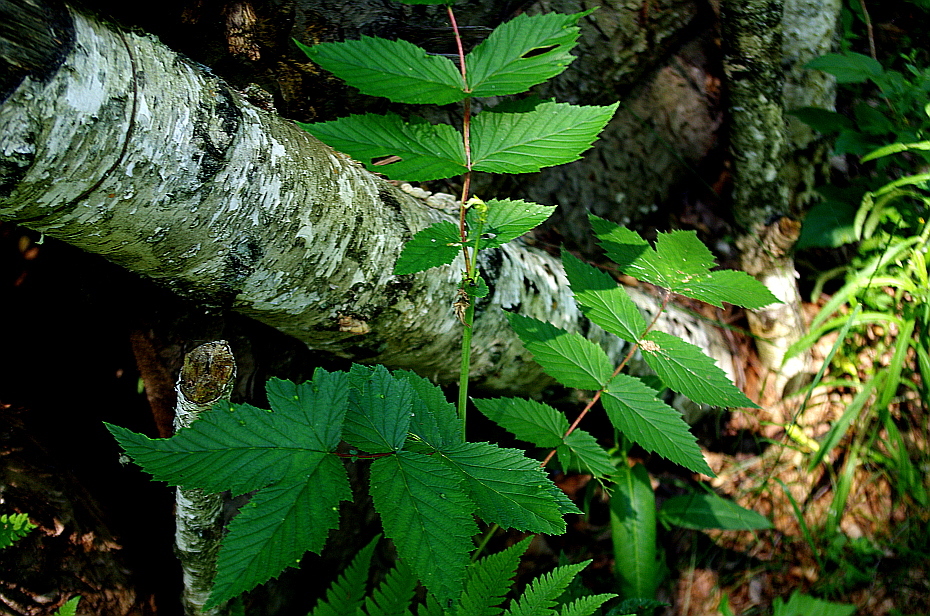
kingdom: Plantae
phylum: Tracheophyta
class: Magnoliopsida
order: Rosales
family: Rosaceae
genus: Filipendula
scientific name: Filipendula ulmaria
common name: Meadowsweet
